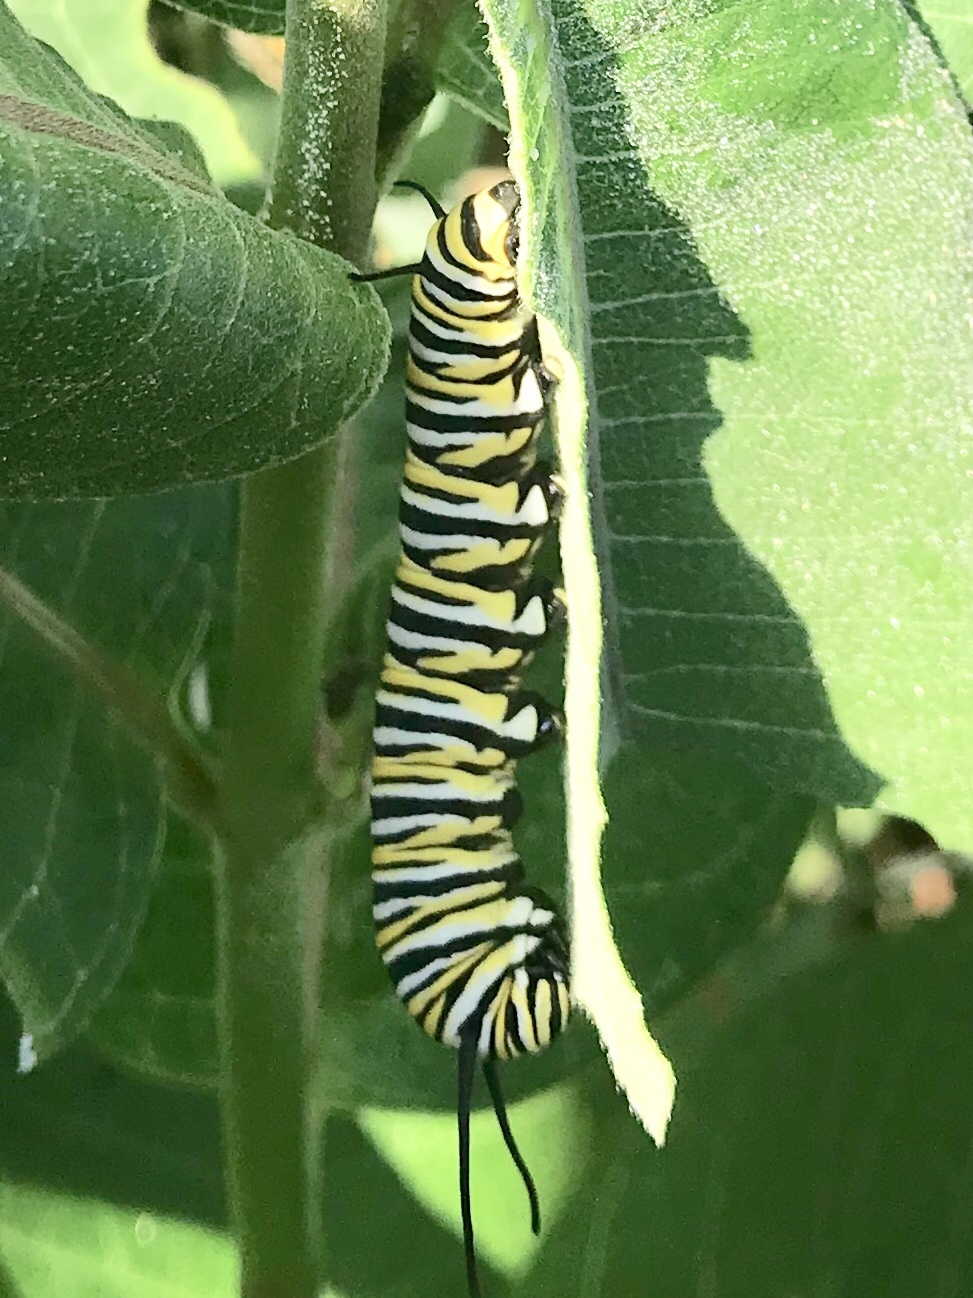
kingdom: Animalia
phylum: Arthropoda
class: Insecta
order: Lepidoptera
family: Nymphalidae
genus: Danaus
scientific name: Danaus plexippus
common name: Monarch
